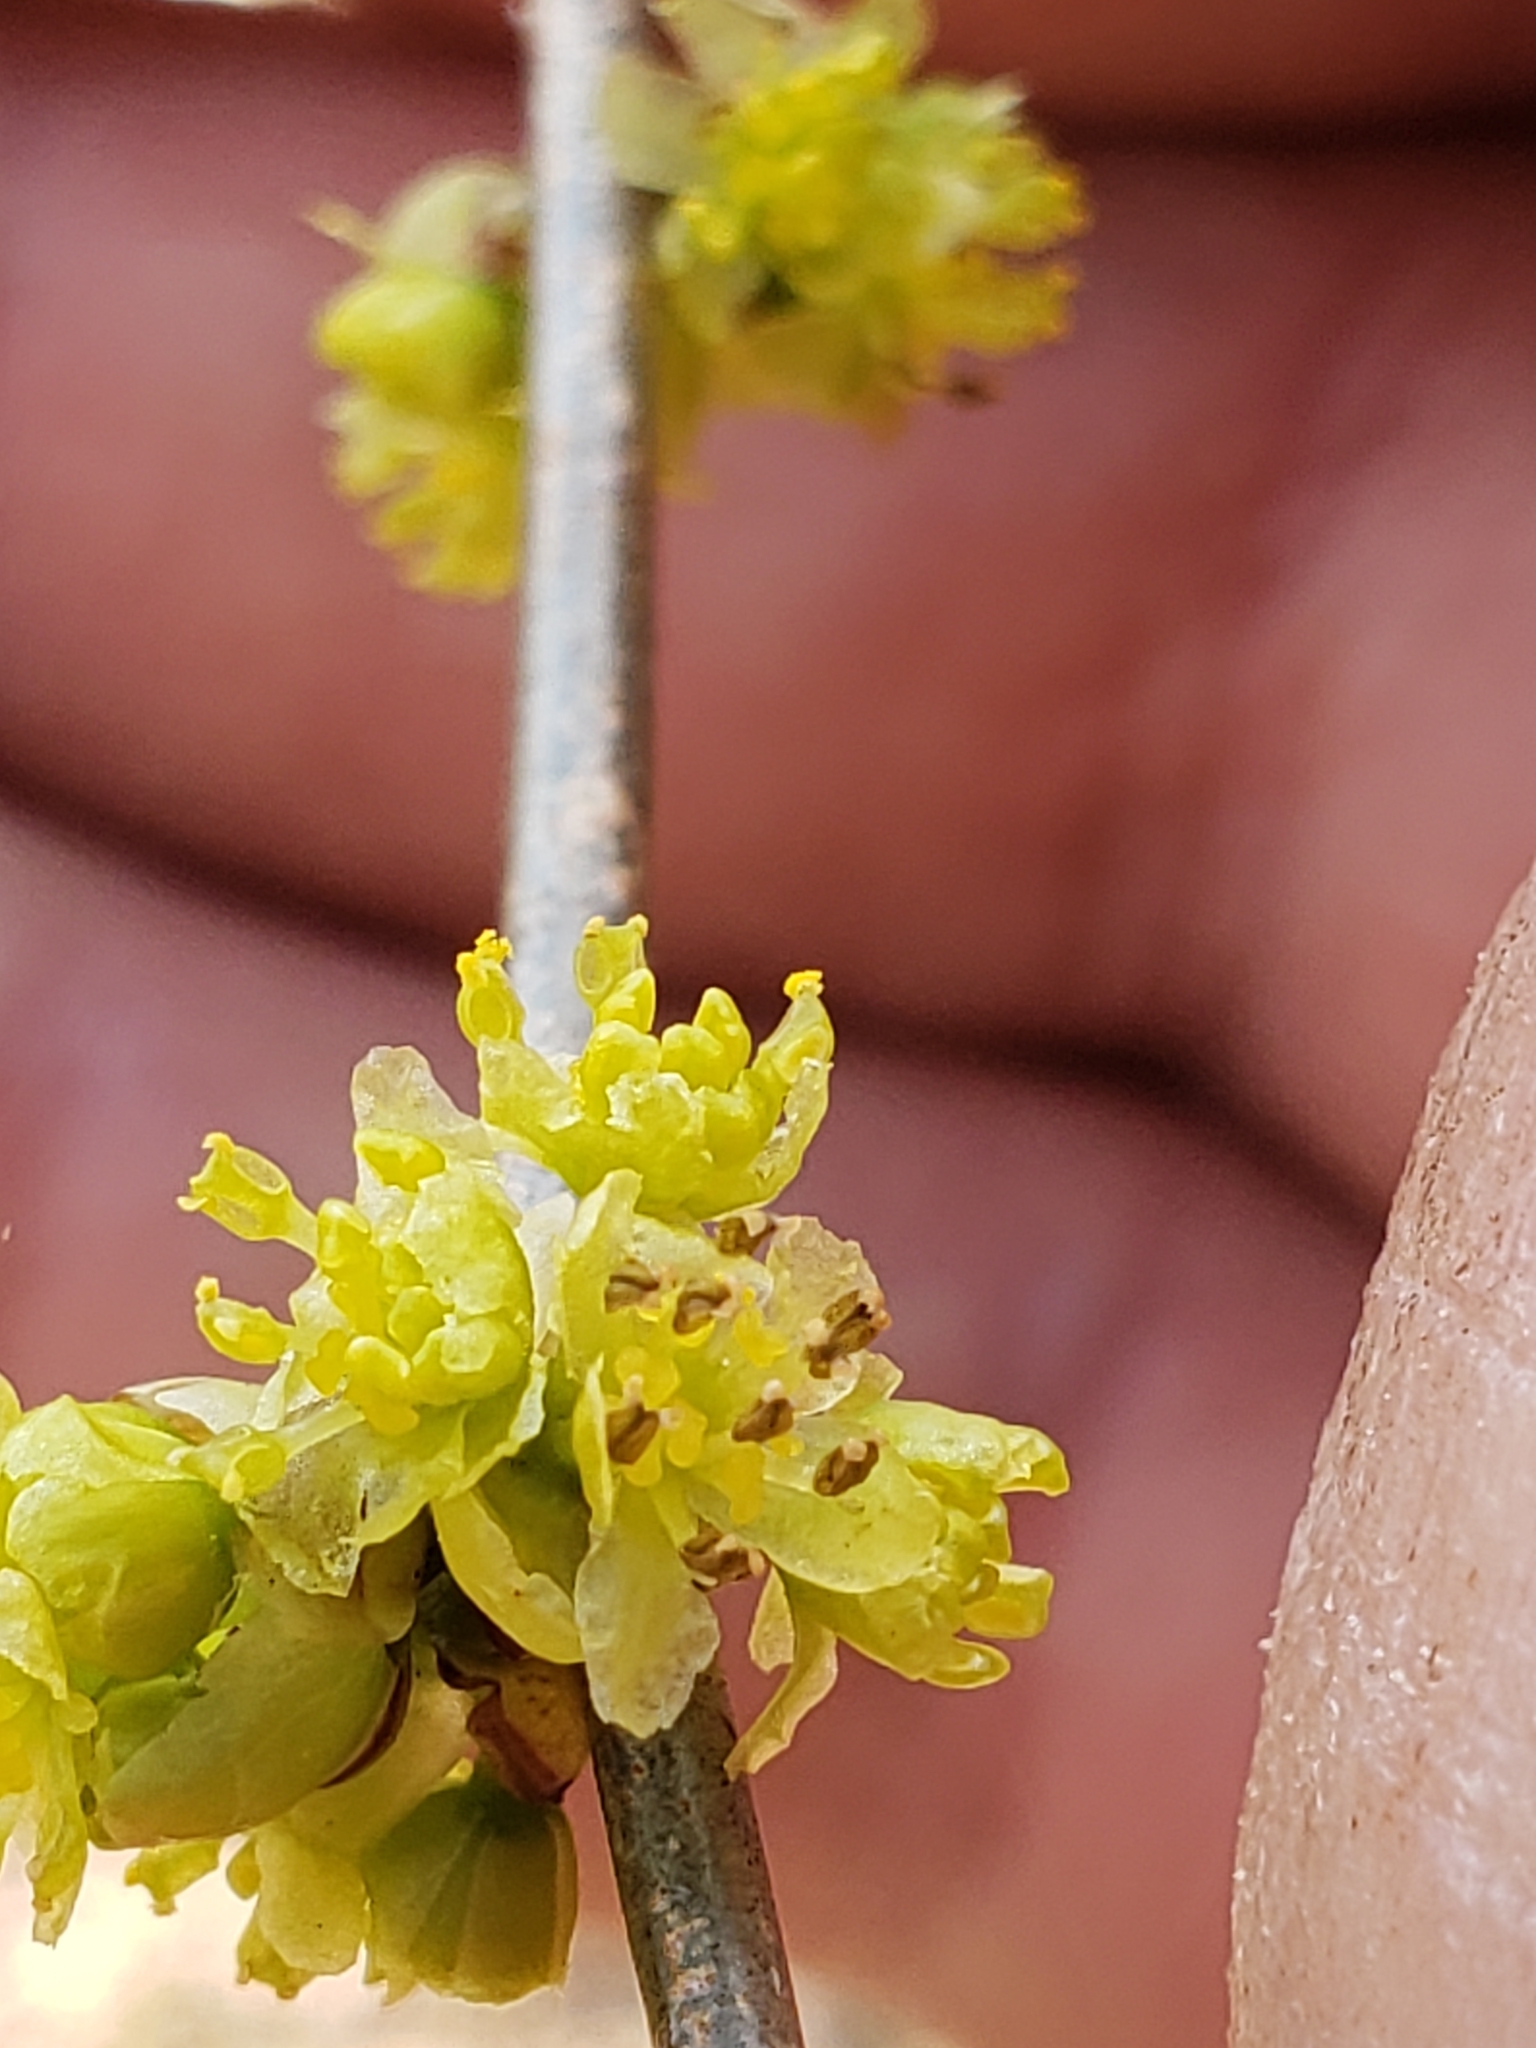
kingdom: Plantae
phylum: Tracheophyta
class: Magnoliopsida
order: Laurales
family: Lauraceae
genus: Lindera
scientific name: Lindera benzoin
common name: Spicebush
